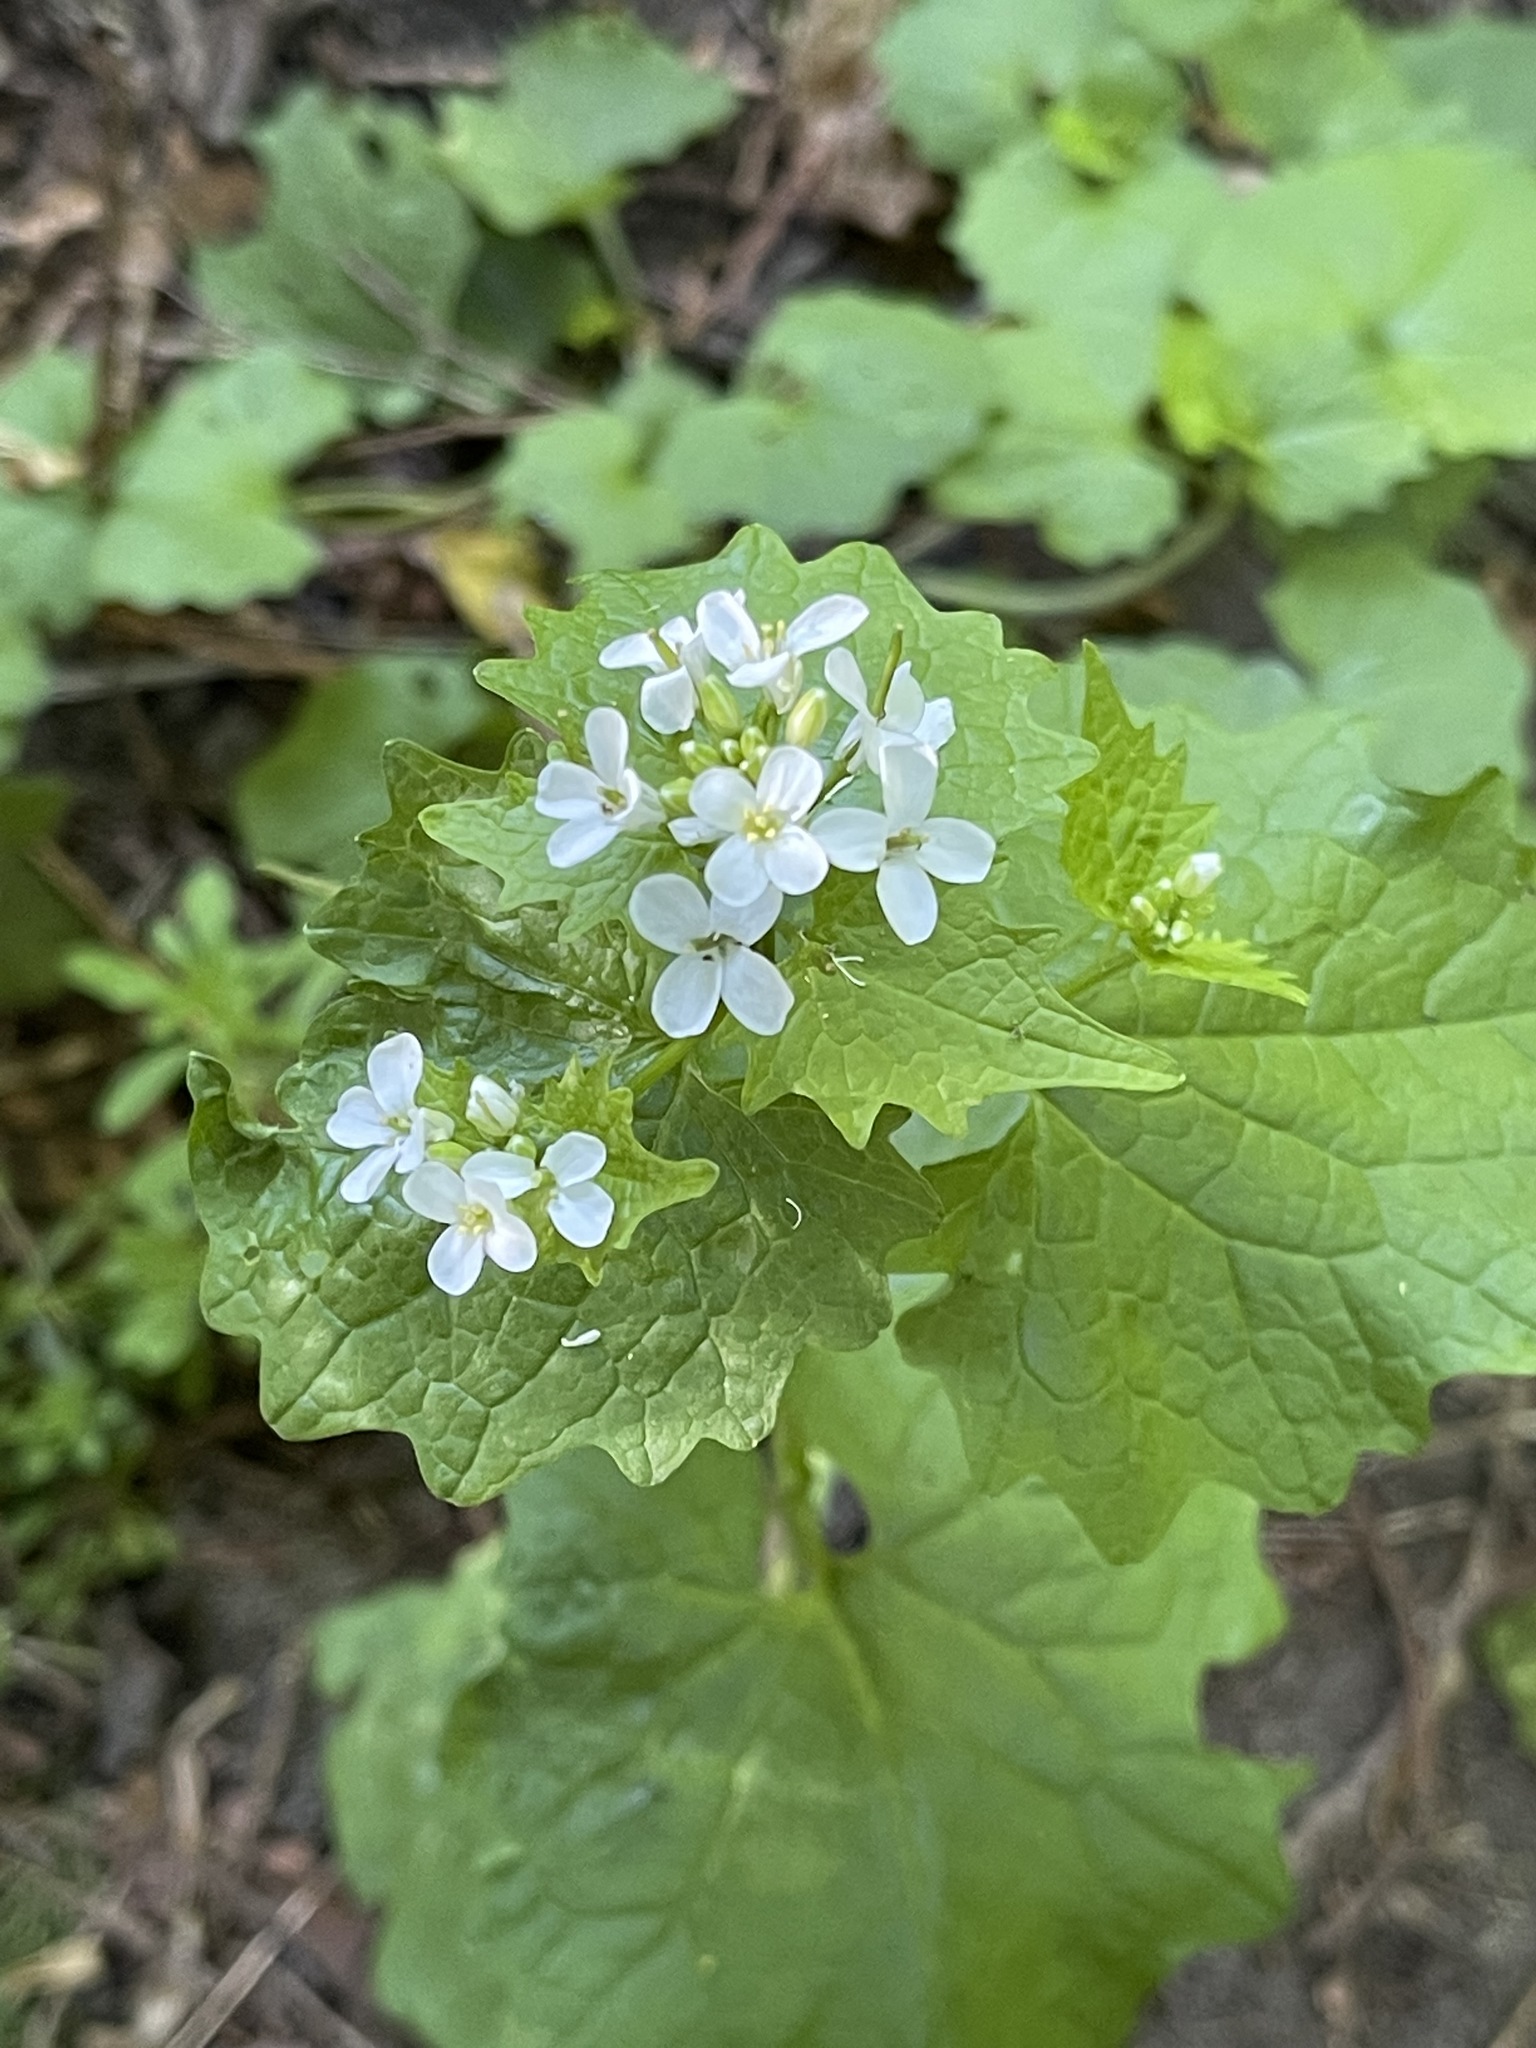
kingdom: Plantae
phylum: Tracheophyta
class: Magnoliopsida
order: Brassicales
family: Brassicaceae
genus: Alliaria
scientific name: Alliaria petiolata
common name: Garlic mustard
